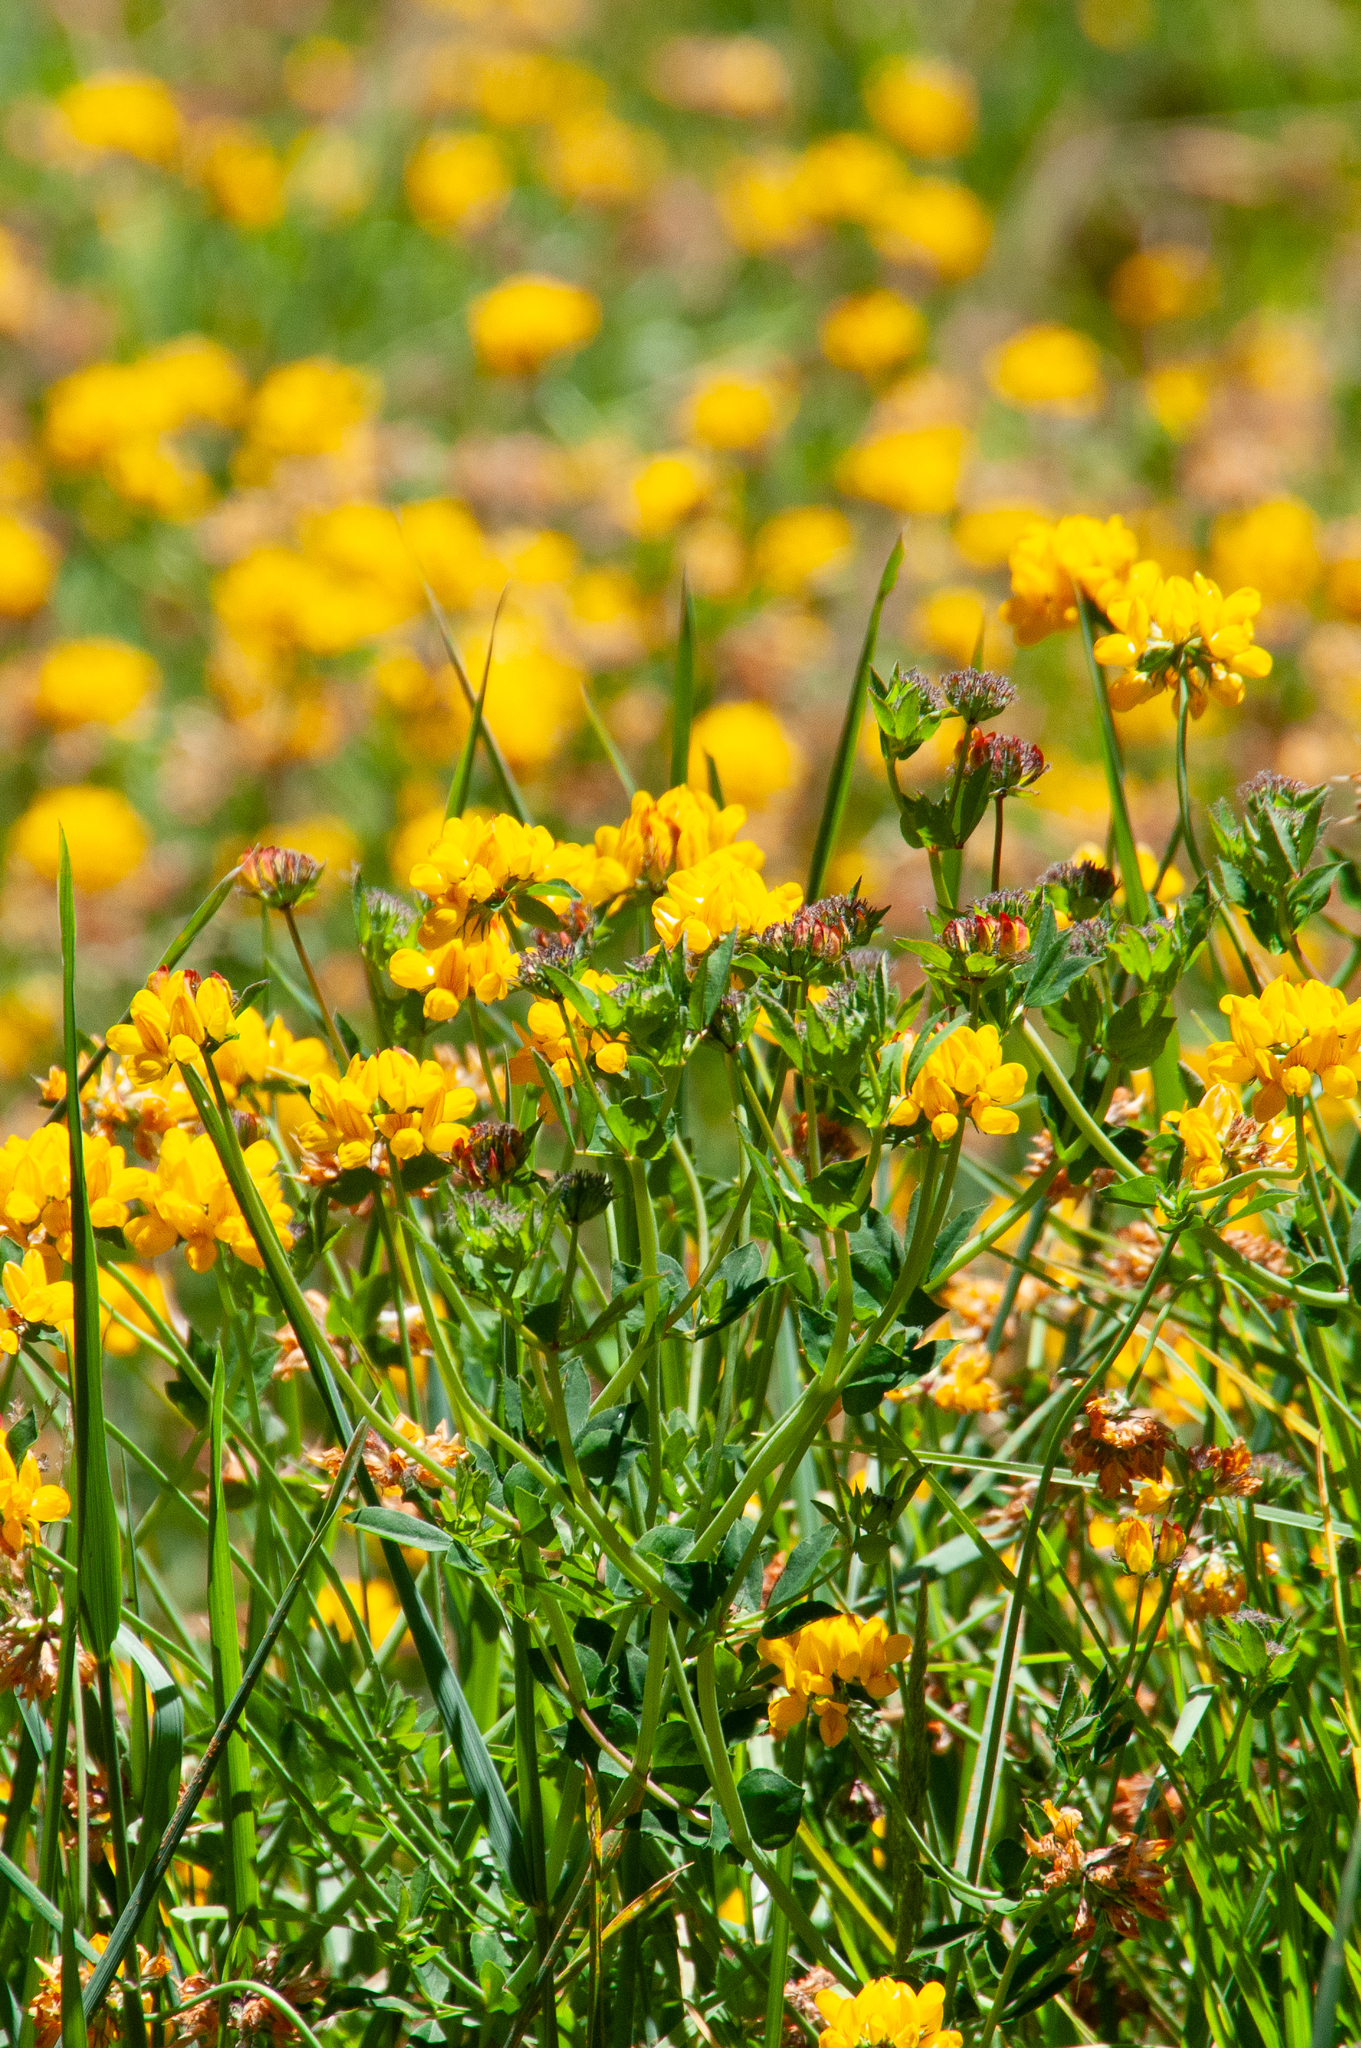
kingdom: Plantae
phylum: Tracheophyta
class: Magnoliopsida
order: Fabales
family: Fabaceae
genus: Lotus
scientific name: Lotus
